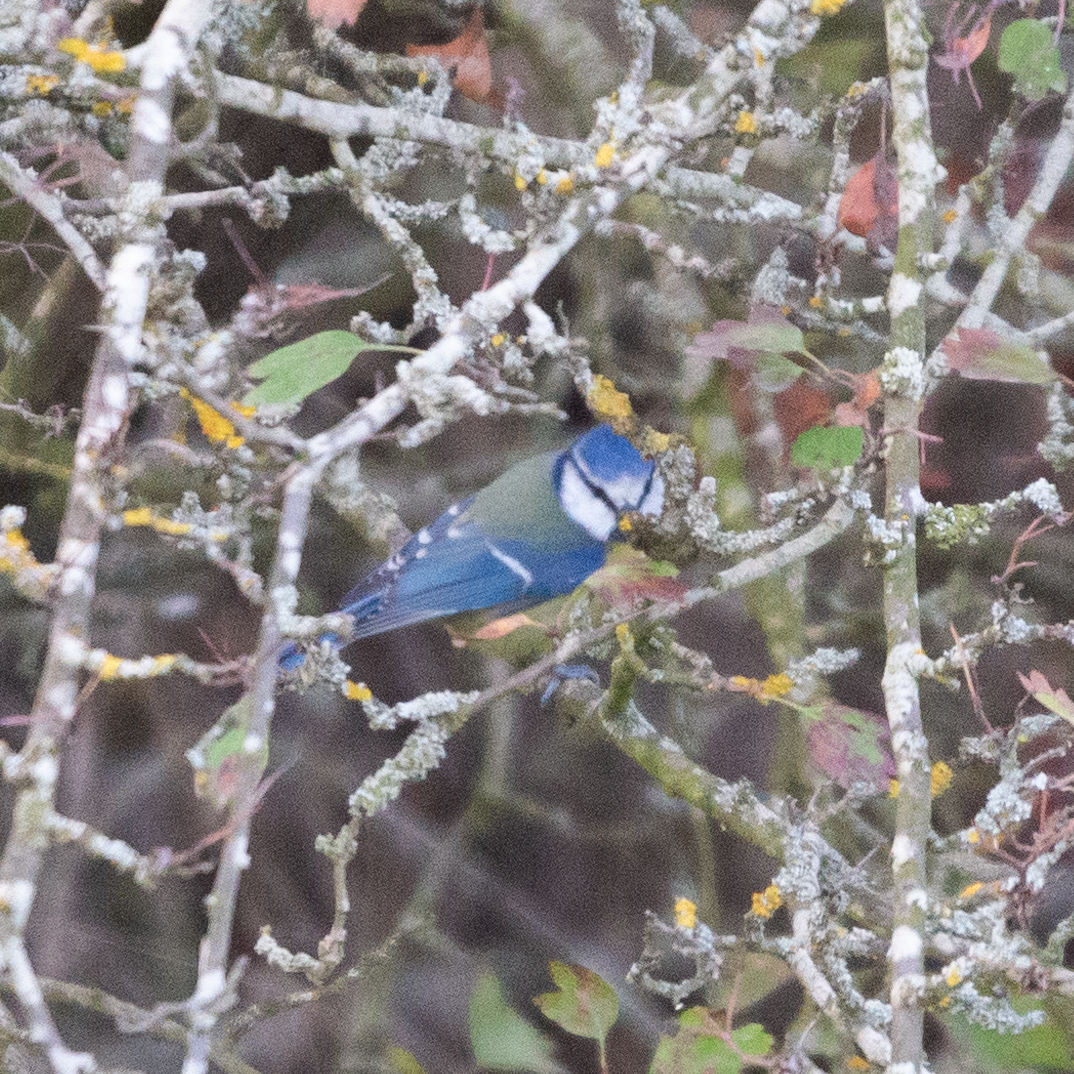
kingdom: Animalia
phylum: Chordata
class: Aves
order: Passeriformes
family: Paridae
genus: Cyanistes
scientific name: Cyanistes caeruleus
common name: Eurasian blue tit
